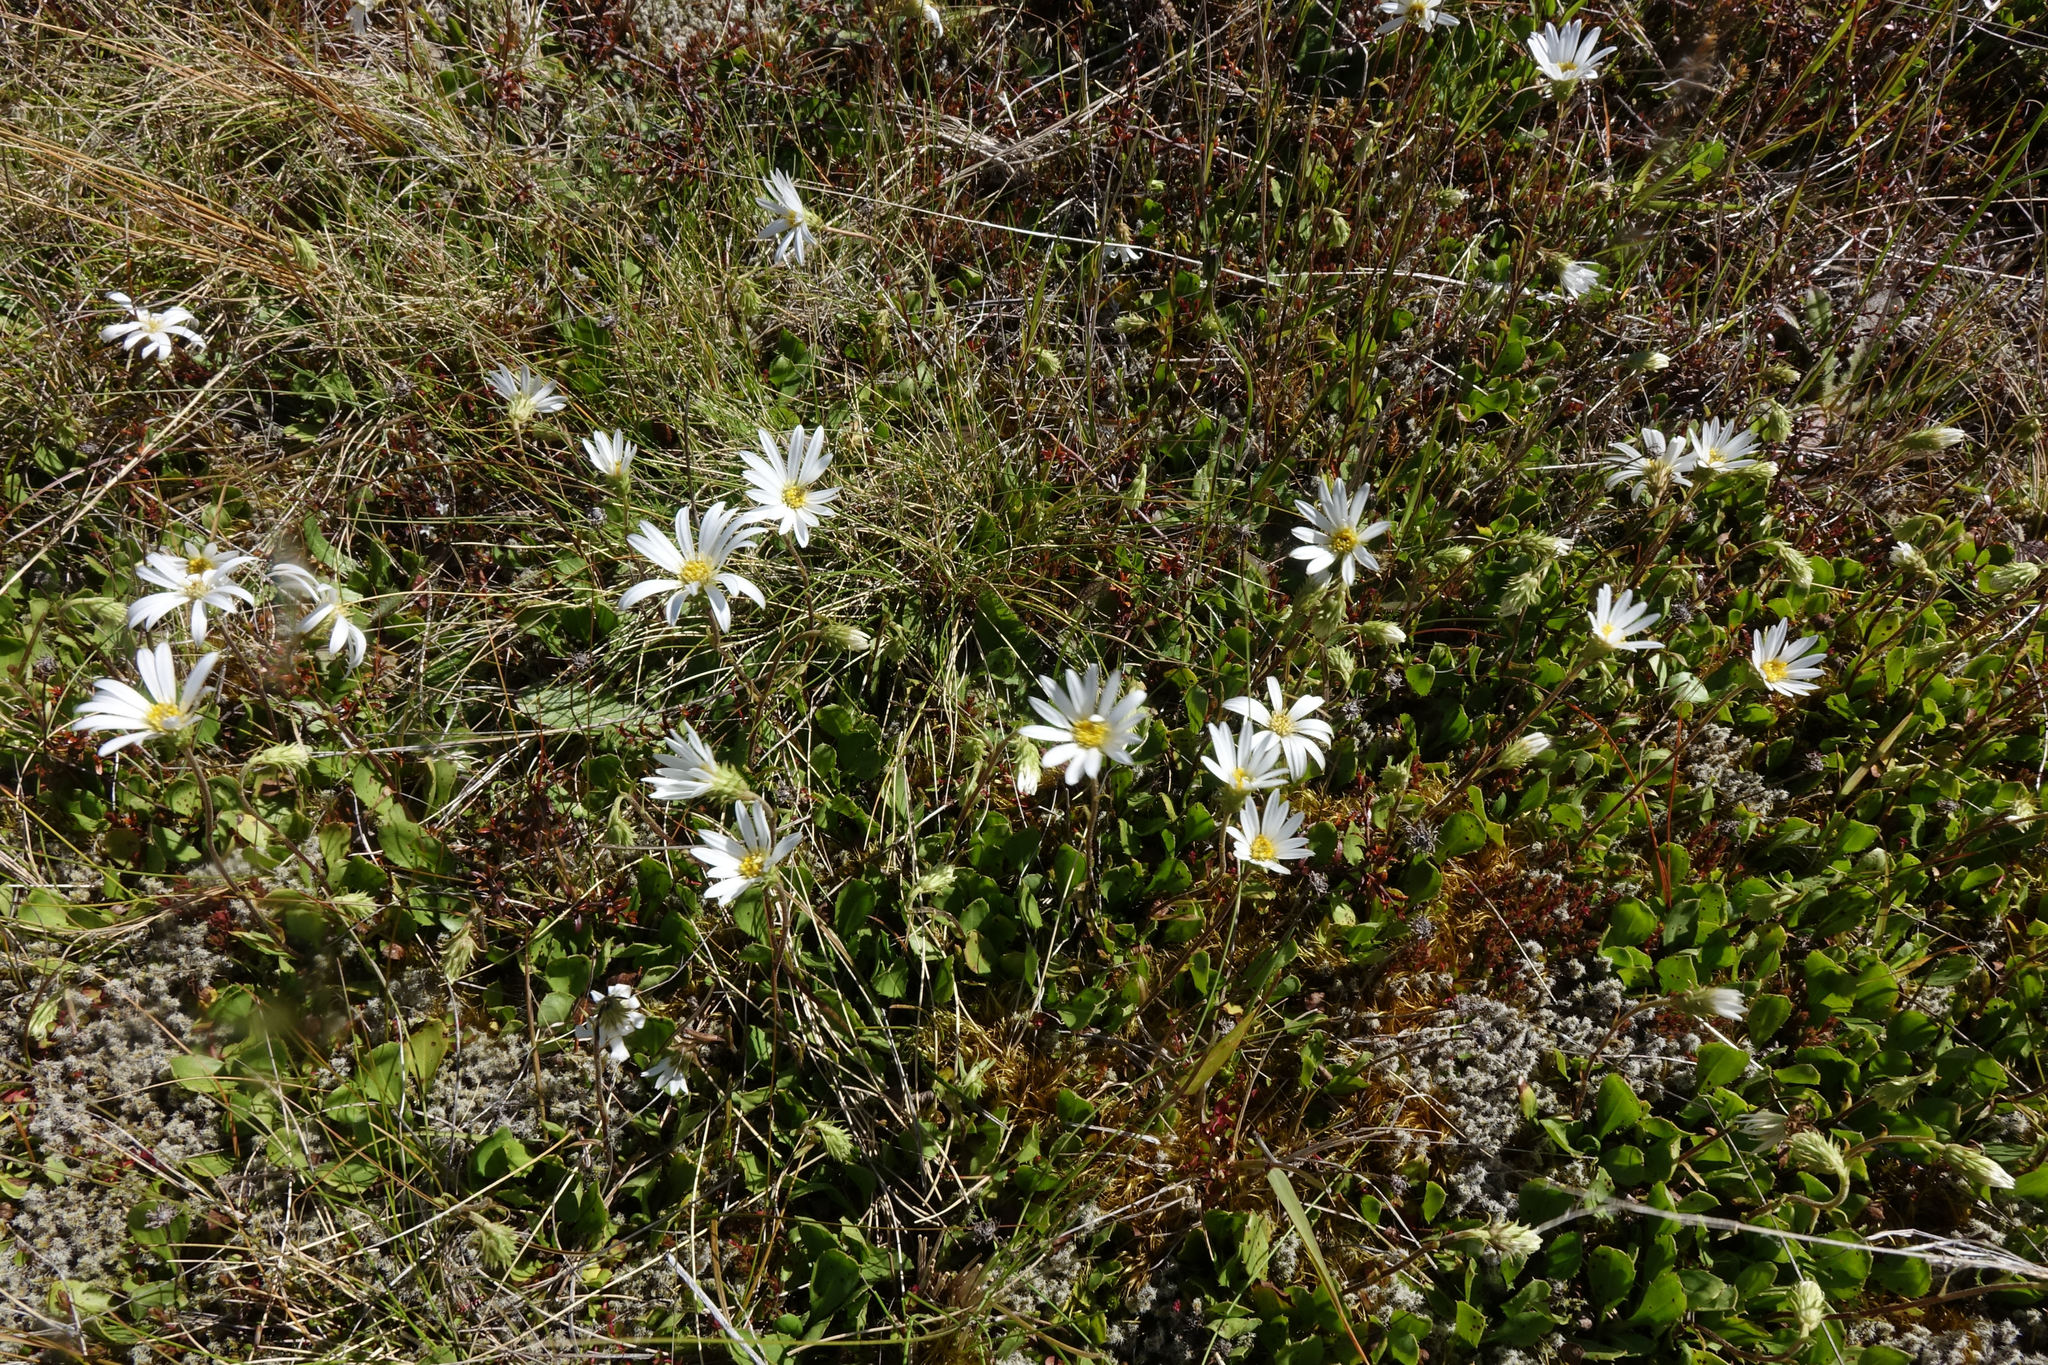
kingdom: Plantae
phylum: Tracheophyta
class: Magnoliopsida
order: Asterales
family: Asteraceae
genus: Celmisia
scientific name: Celmisia glandulosa
